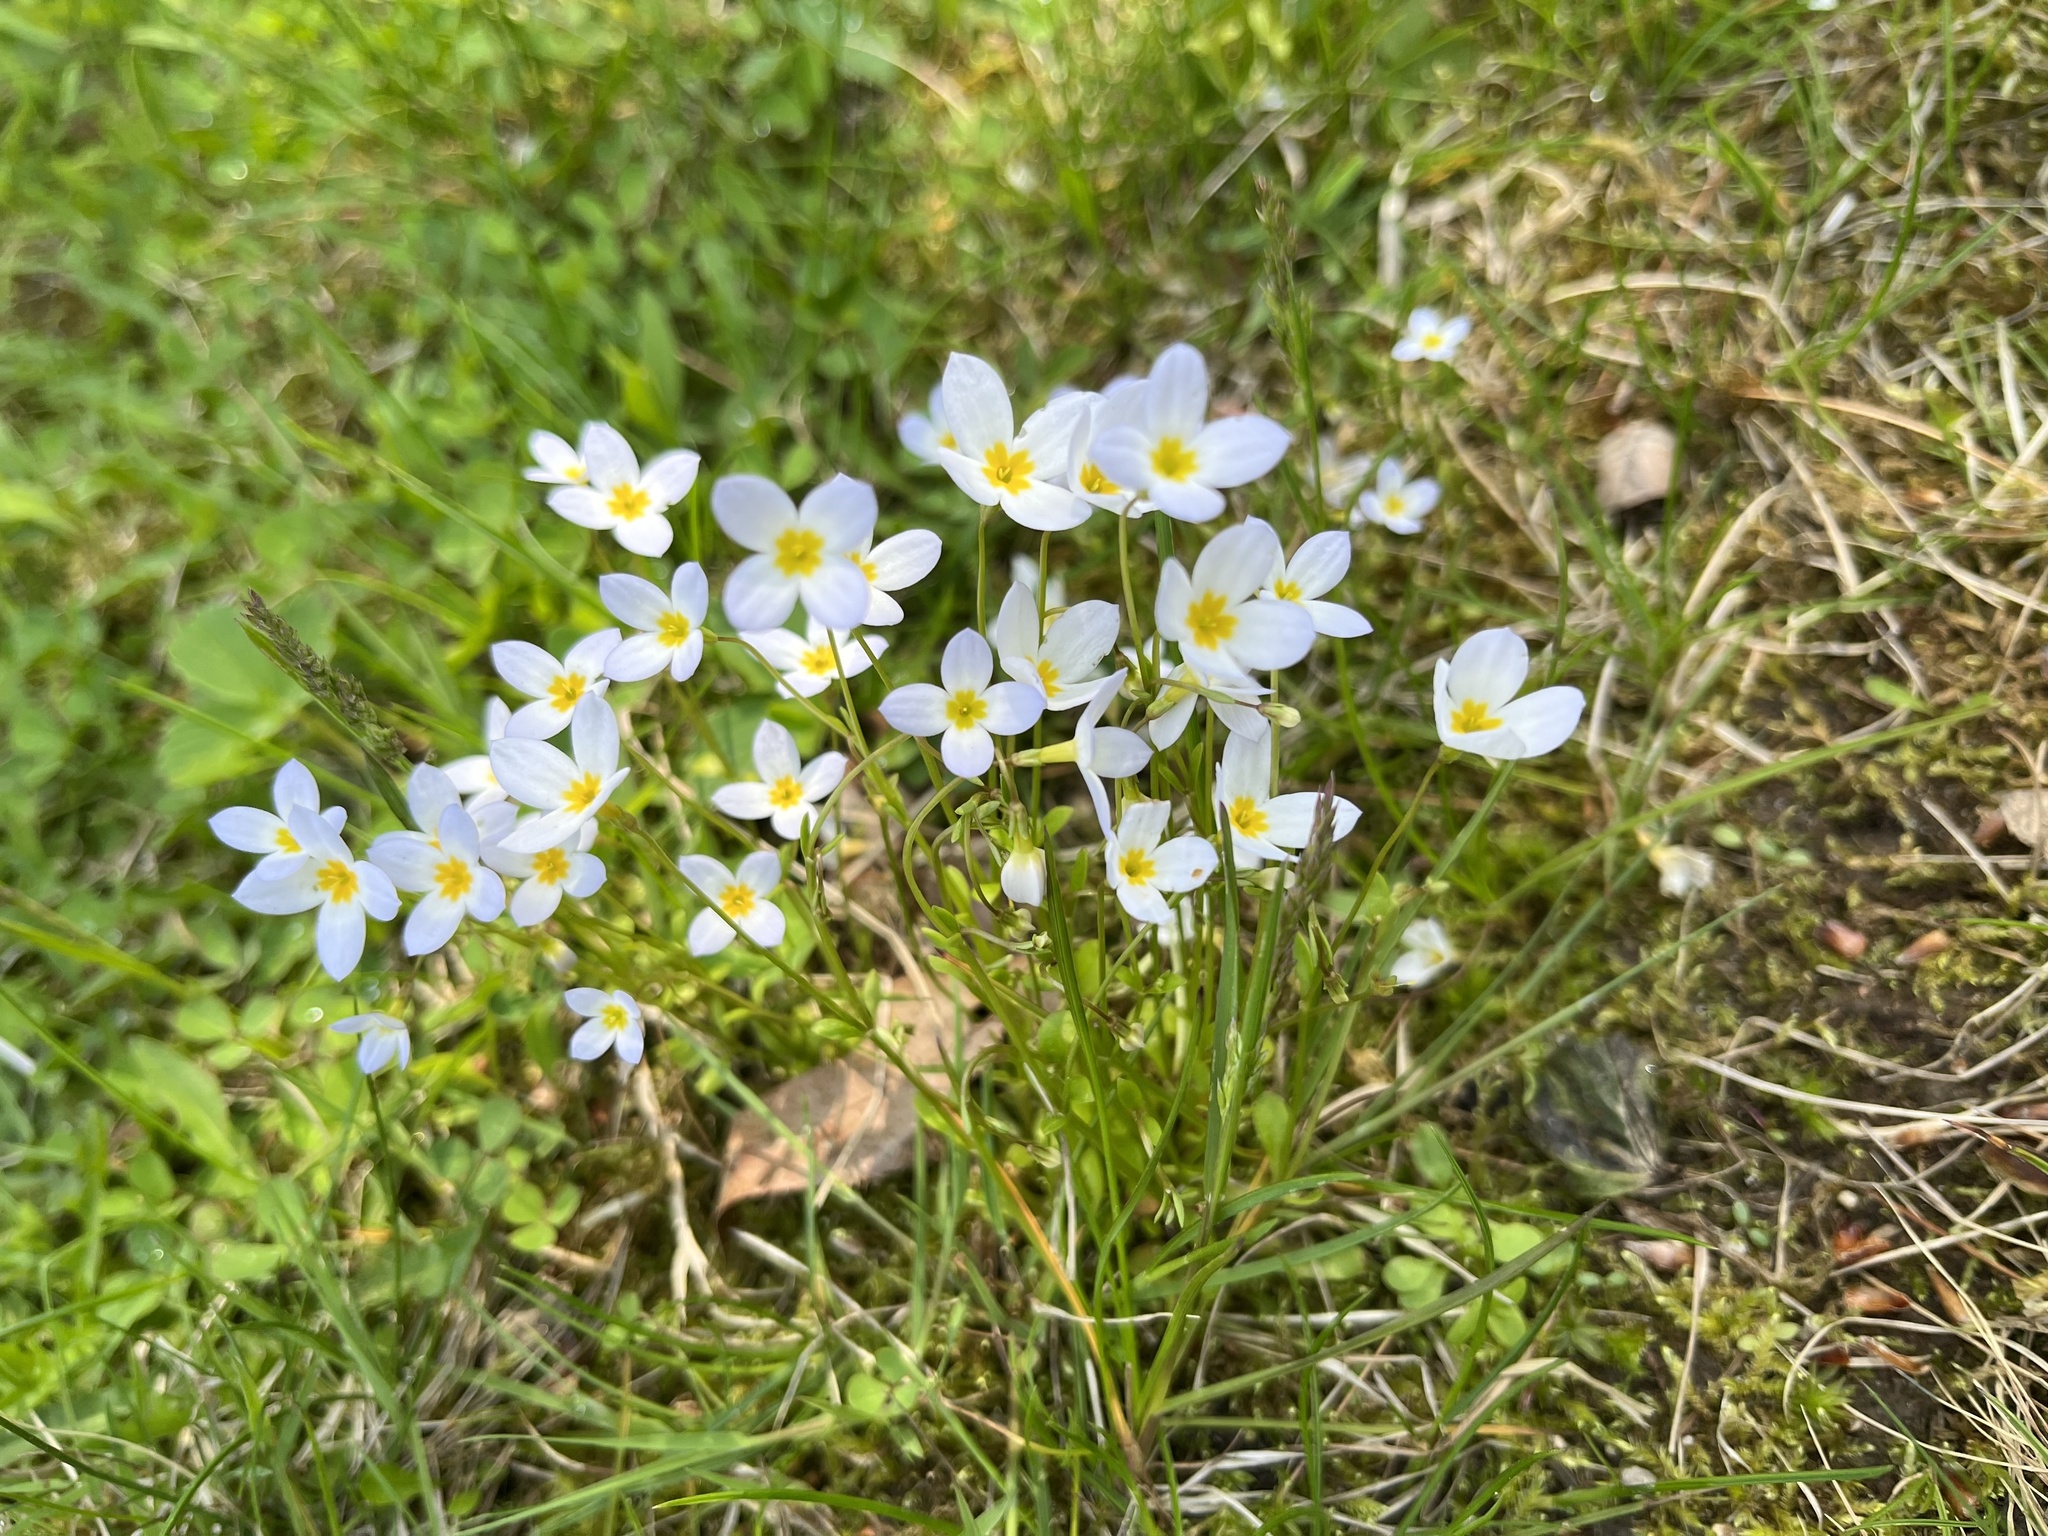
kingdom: Plantae
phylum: Tracheophyta
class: Magnoliopsida
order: Gentianales
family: Rubiaceae
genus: Houstonia
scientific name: Houstonia caerulea
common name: Bluets
